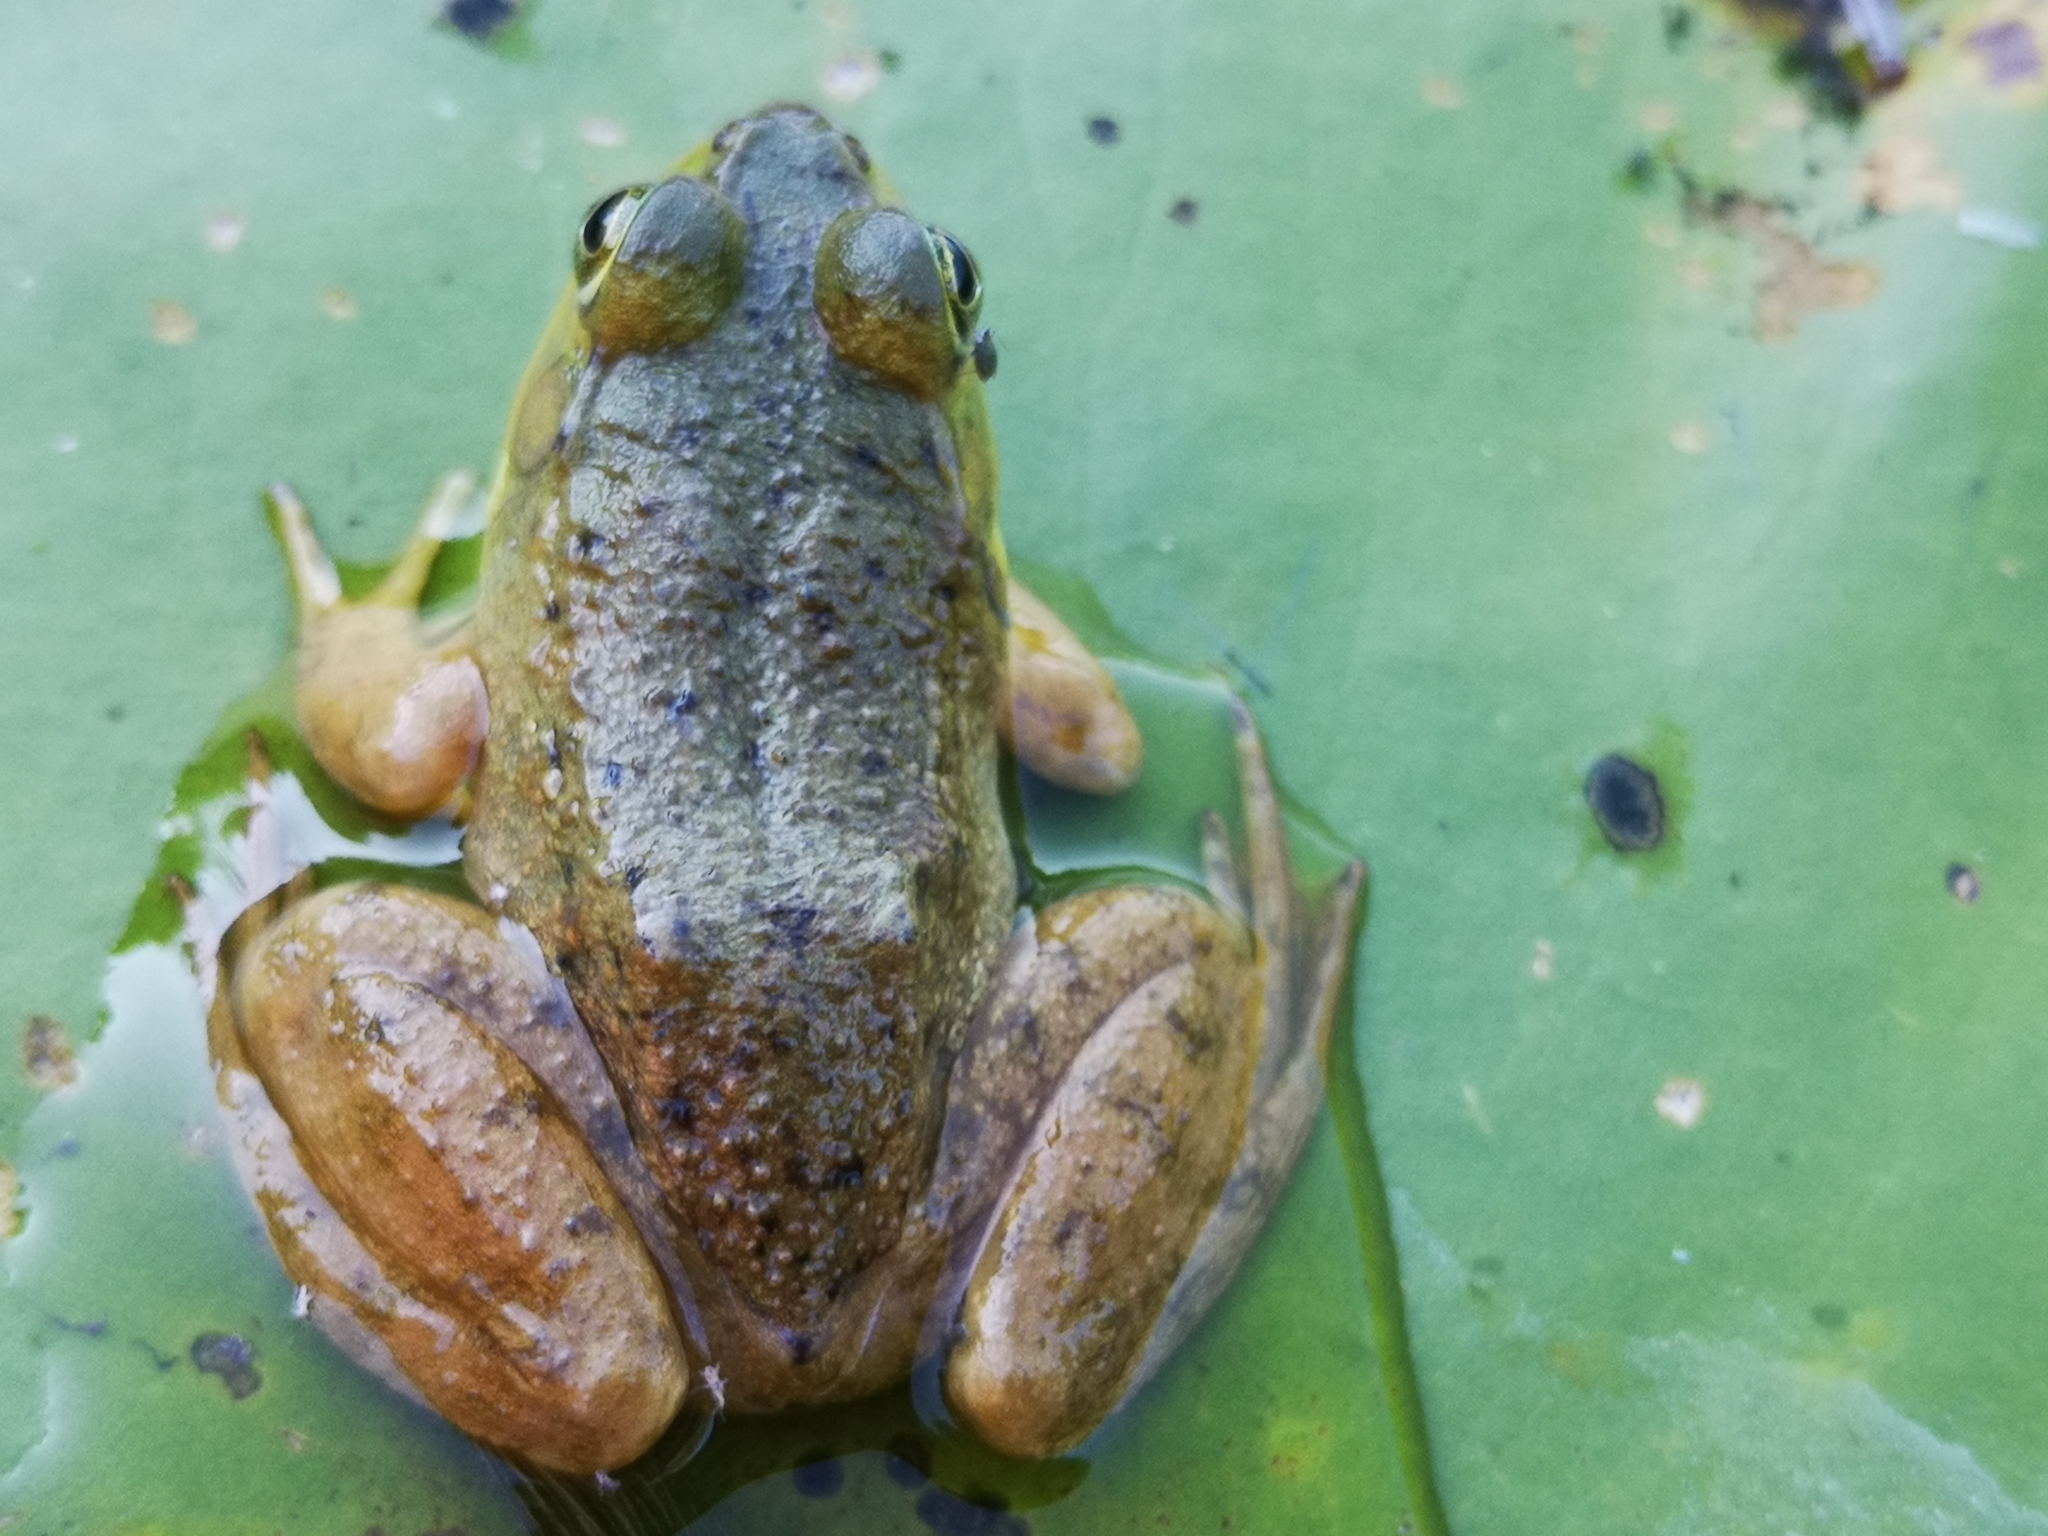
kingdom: Animalia
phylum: Chordata
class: Amphibia
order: Anura
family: Ranidae
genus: Lithobates
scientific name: Lithobates catesbeianus
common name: American bullfrog
